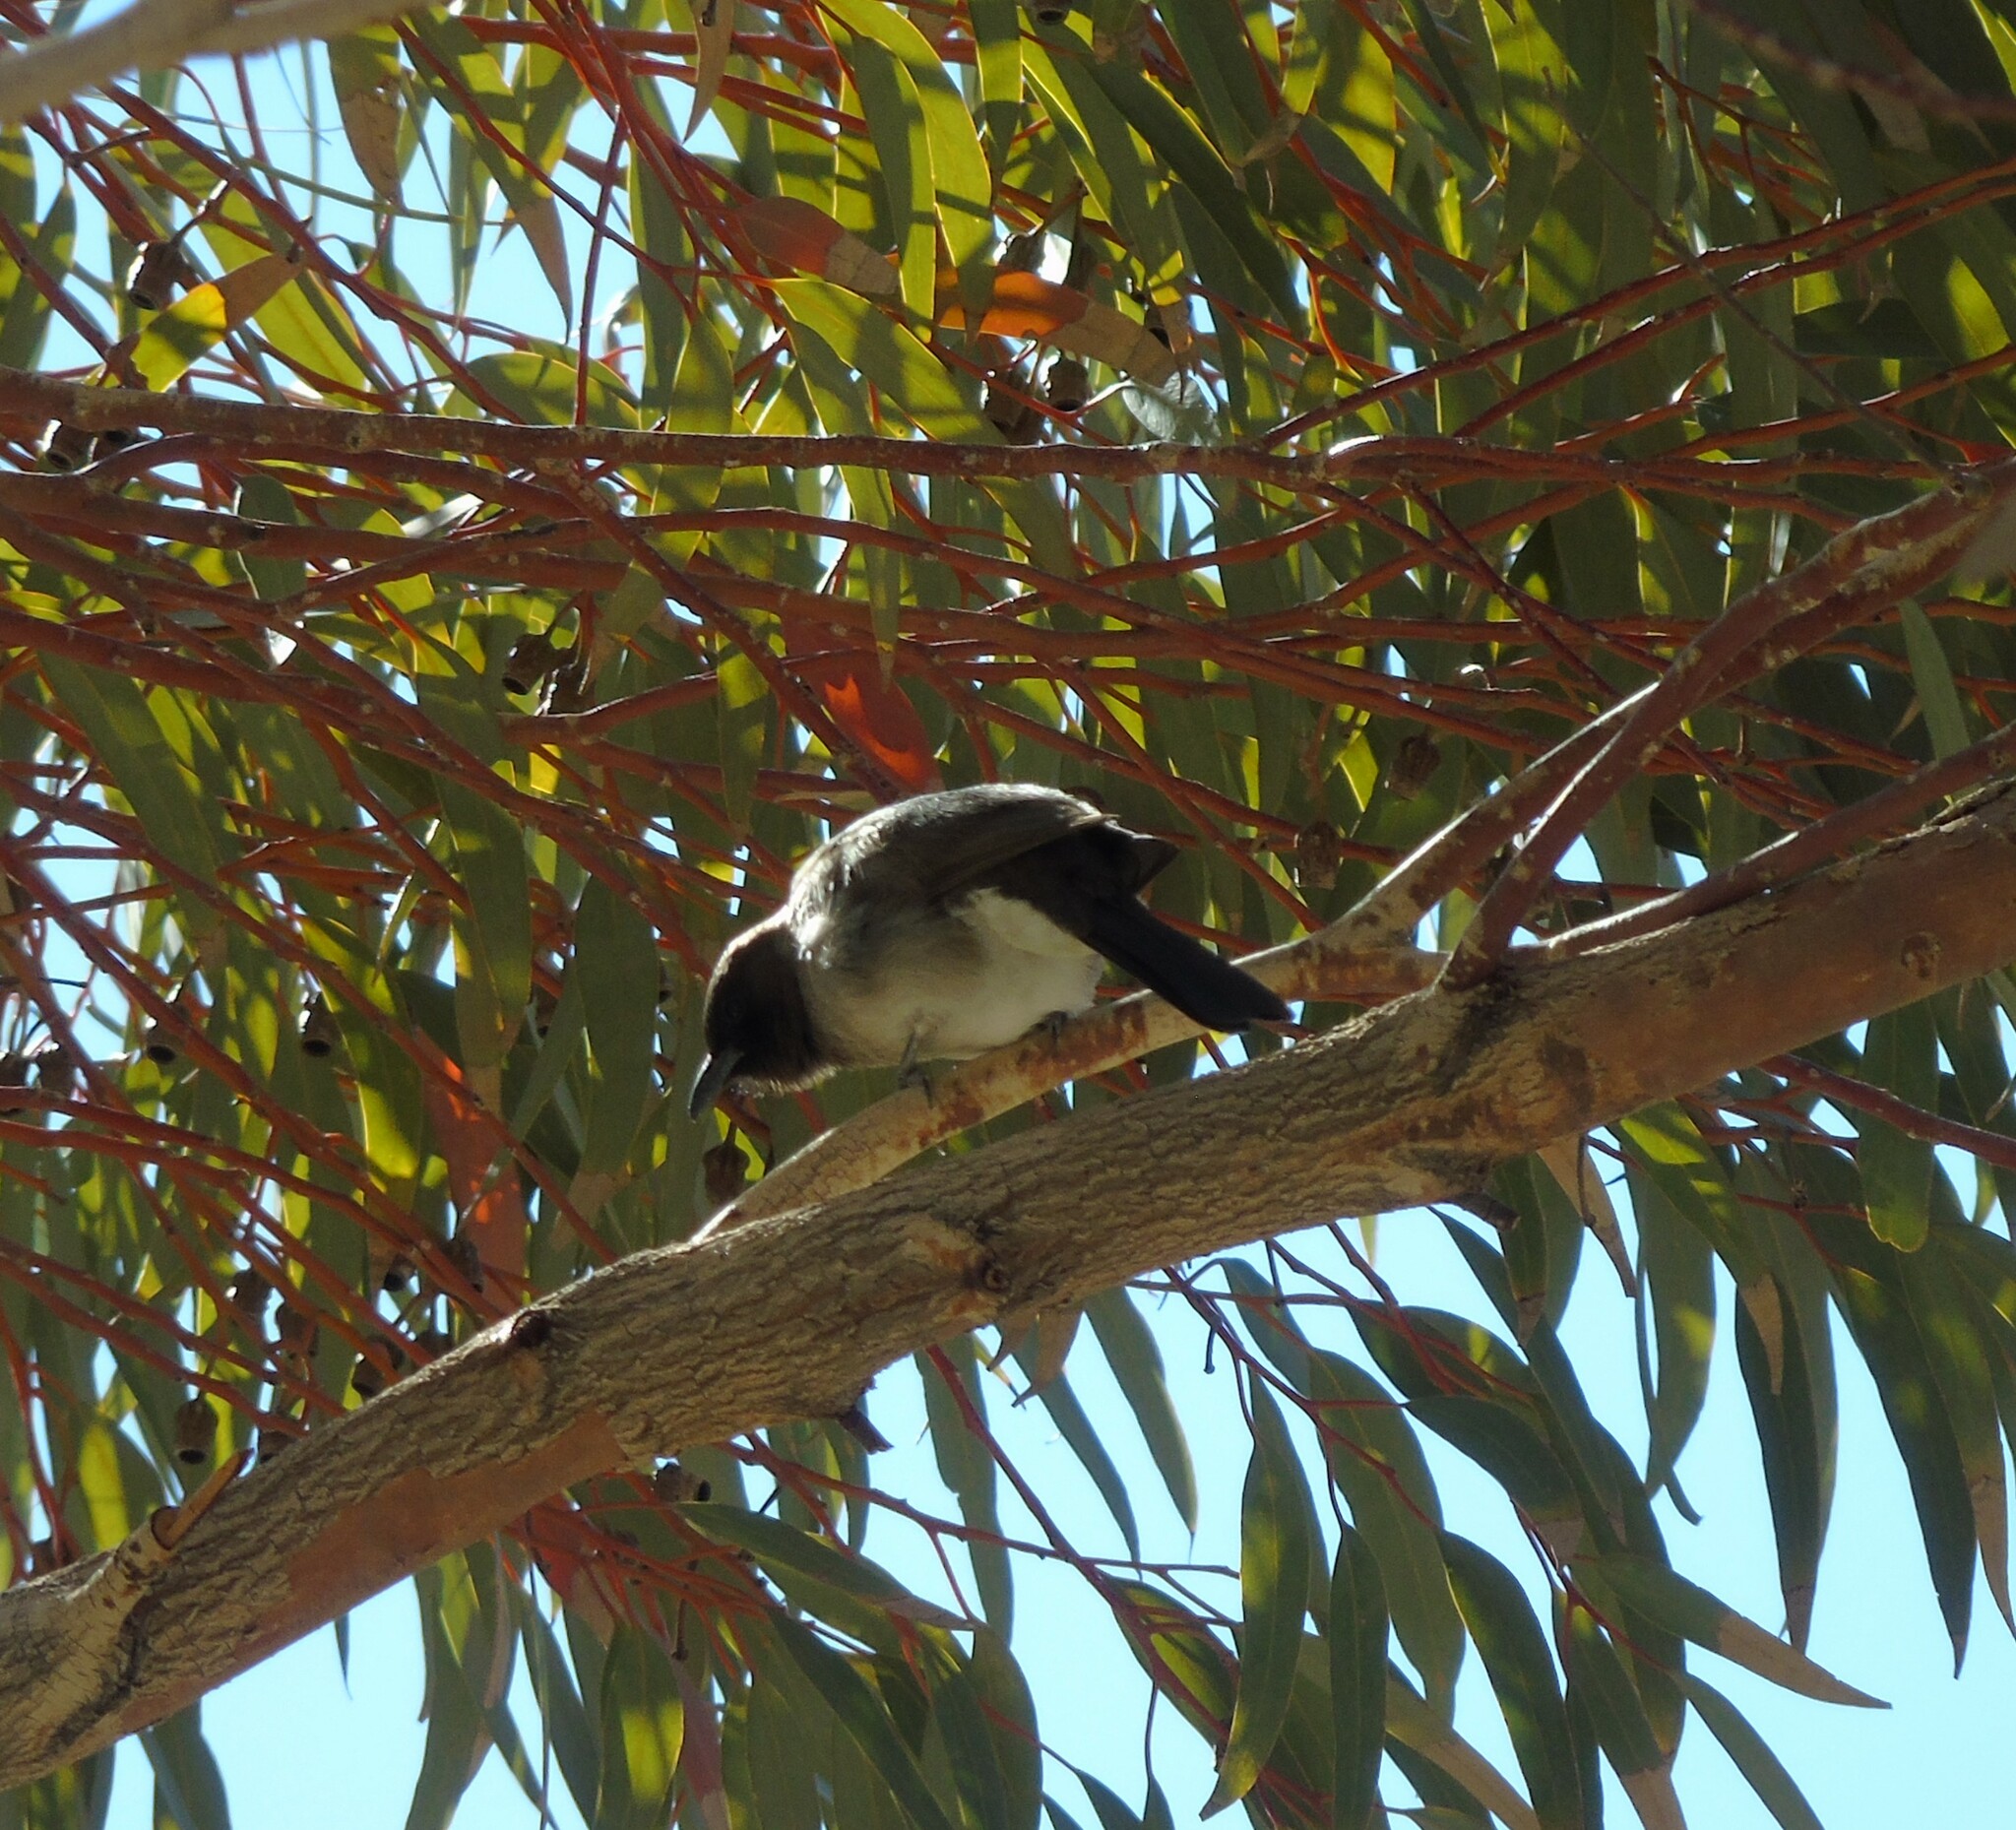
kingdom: Animalia
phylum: Chordata
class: Aves
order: Passeriformes
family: Pycnonotidae
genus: Pycnonotus
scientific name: Pycnonotus barbatus
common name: Common bulbul
